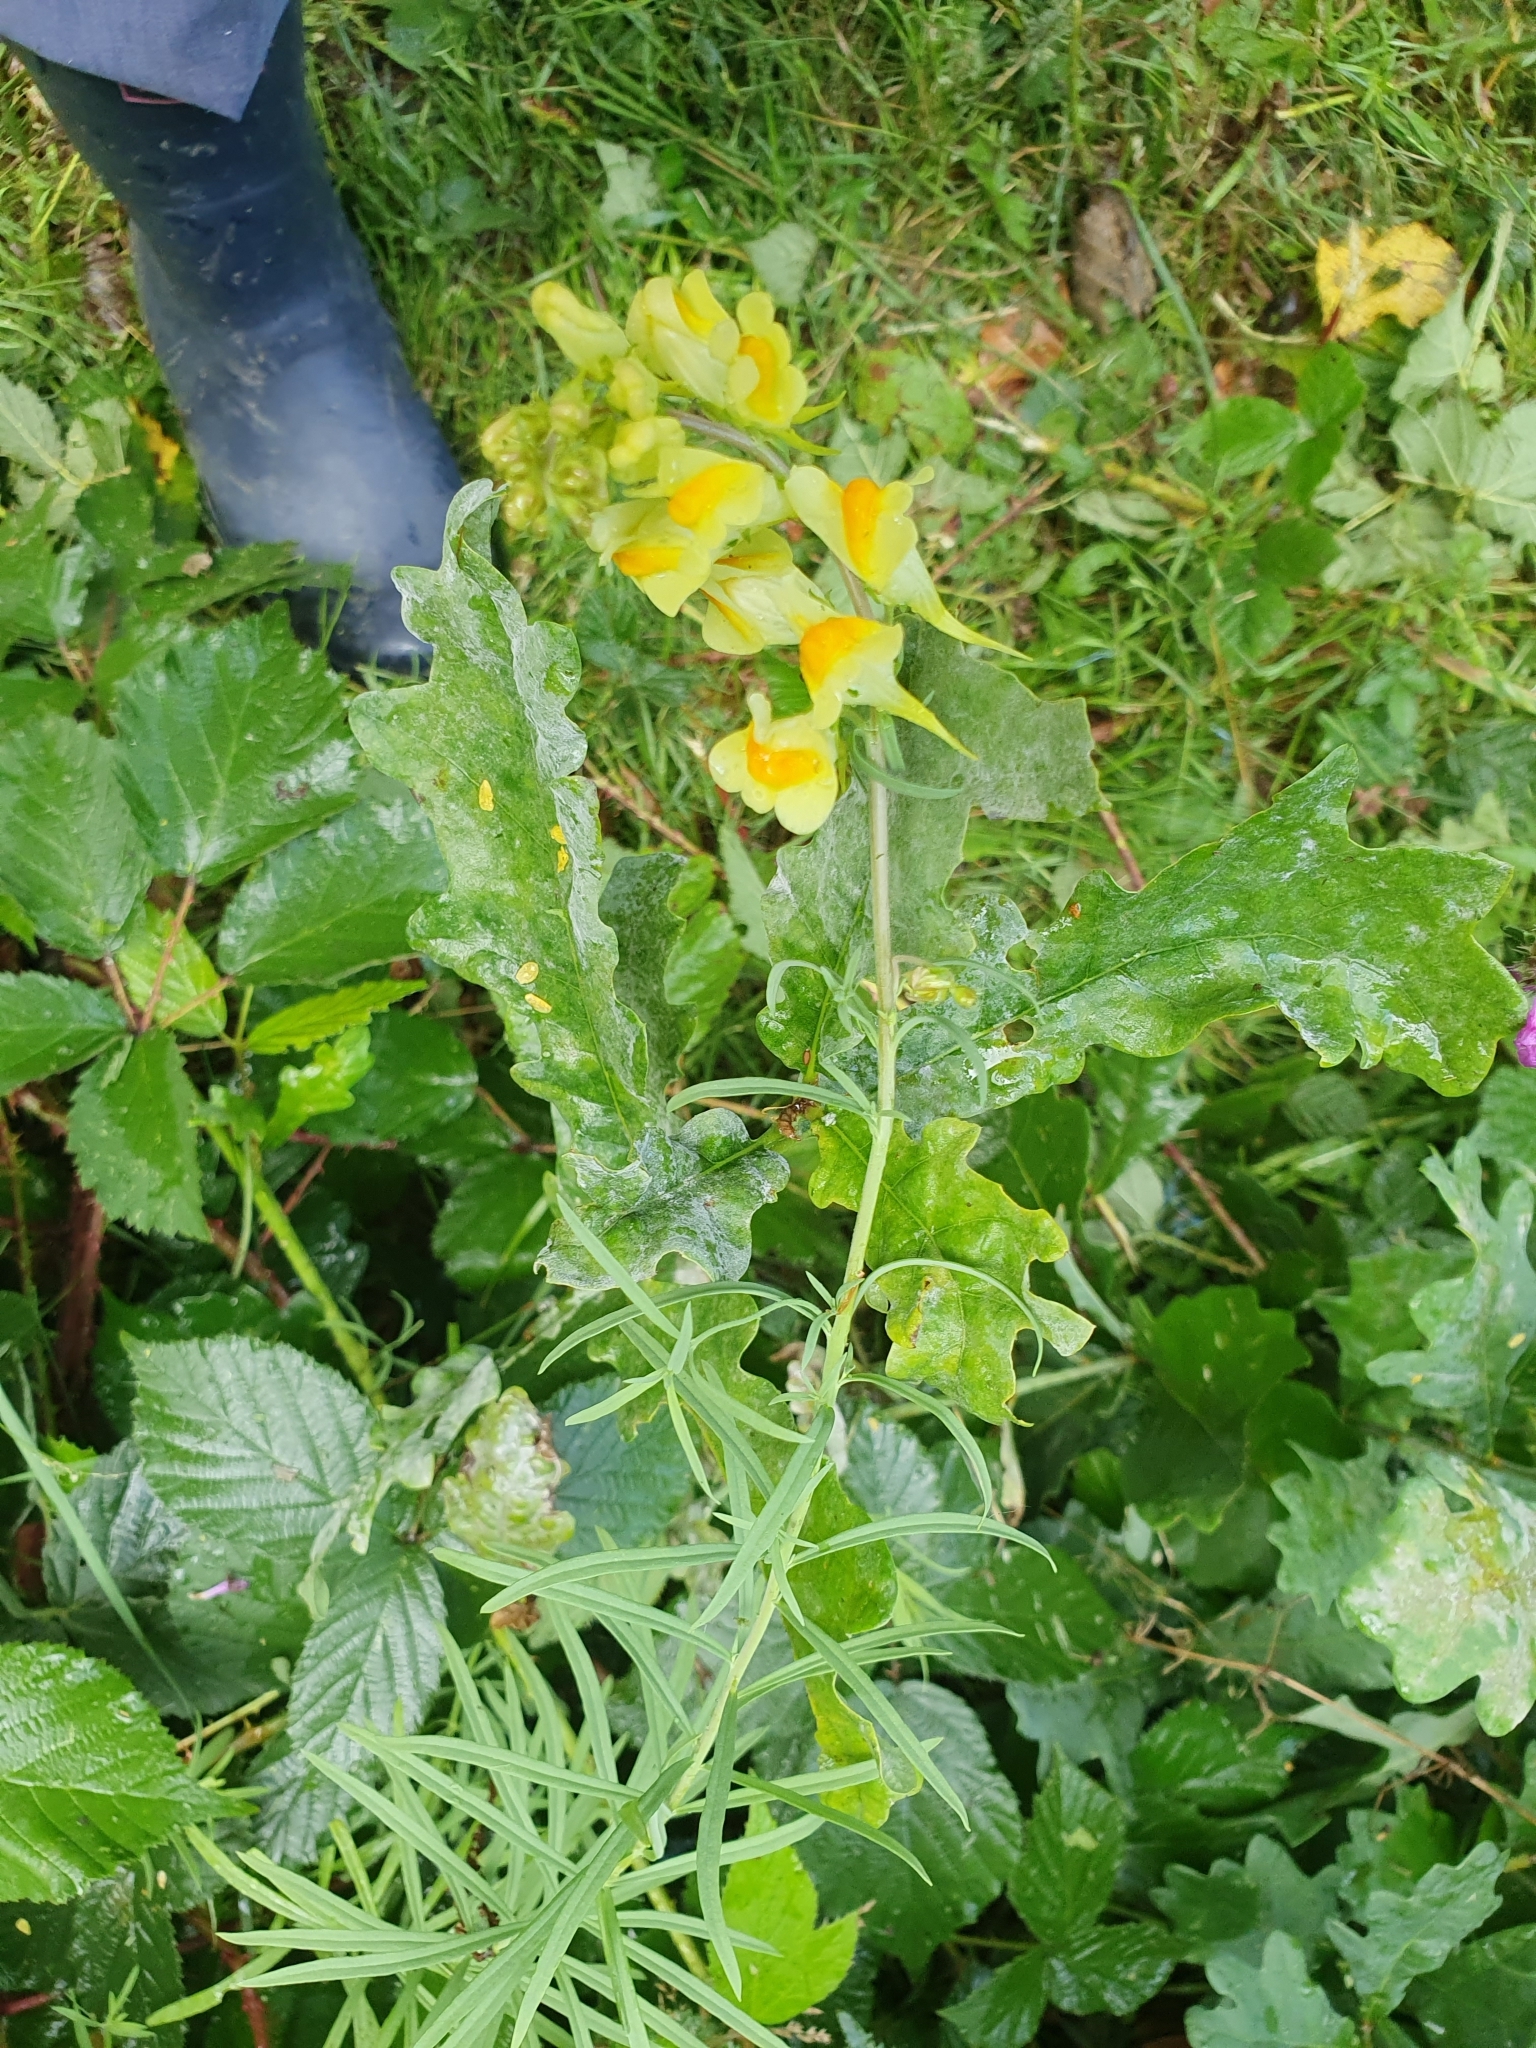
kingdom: Plantae
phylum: Tracheophyta
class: Magnoliopsida
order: Lamiales
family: Plantaginaceae
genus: Linaria
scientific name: Linaria vulgaris
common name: Butter and eggs
